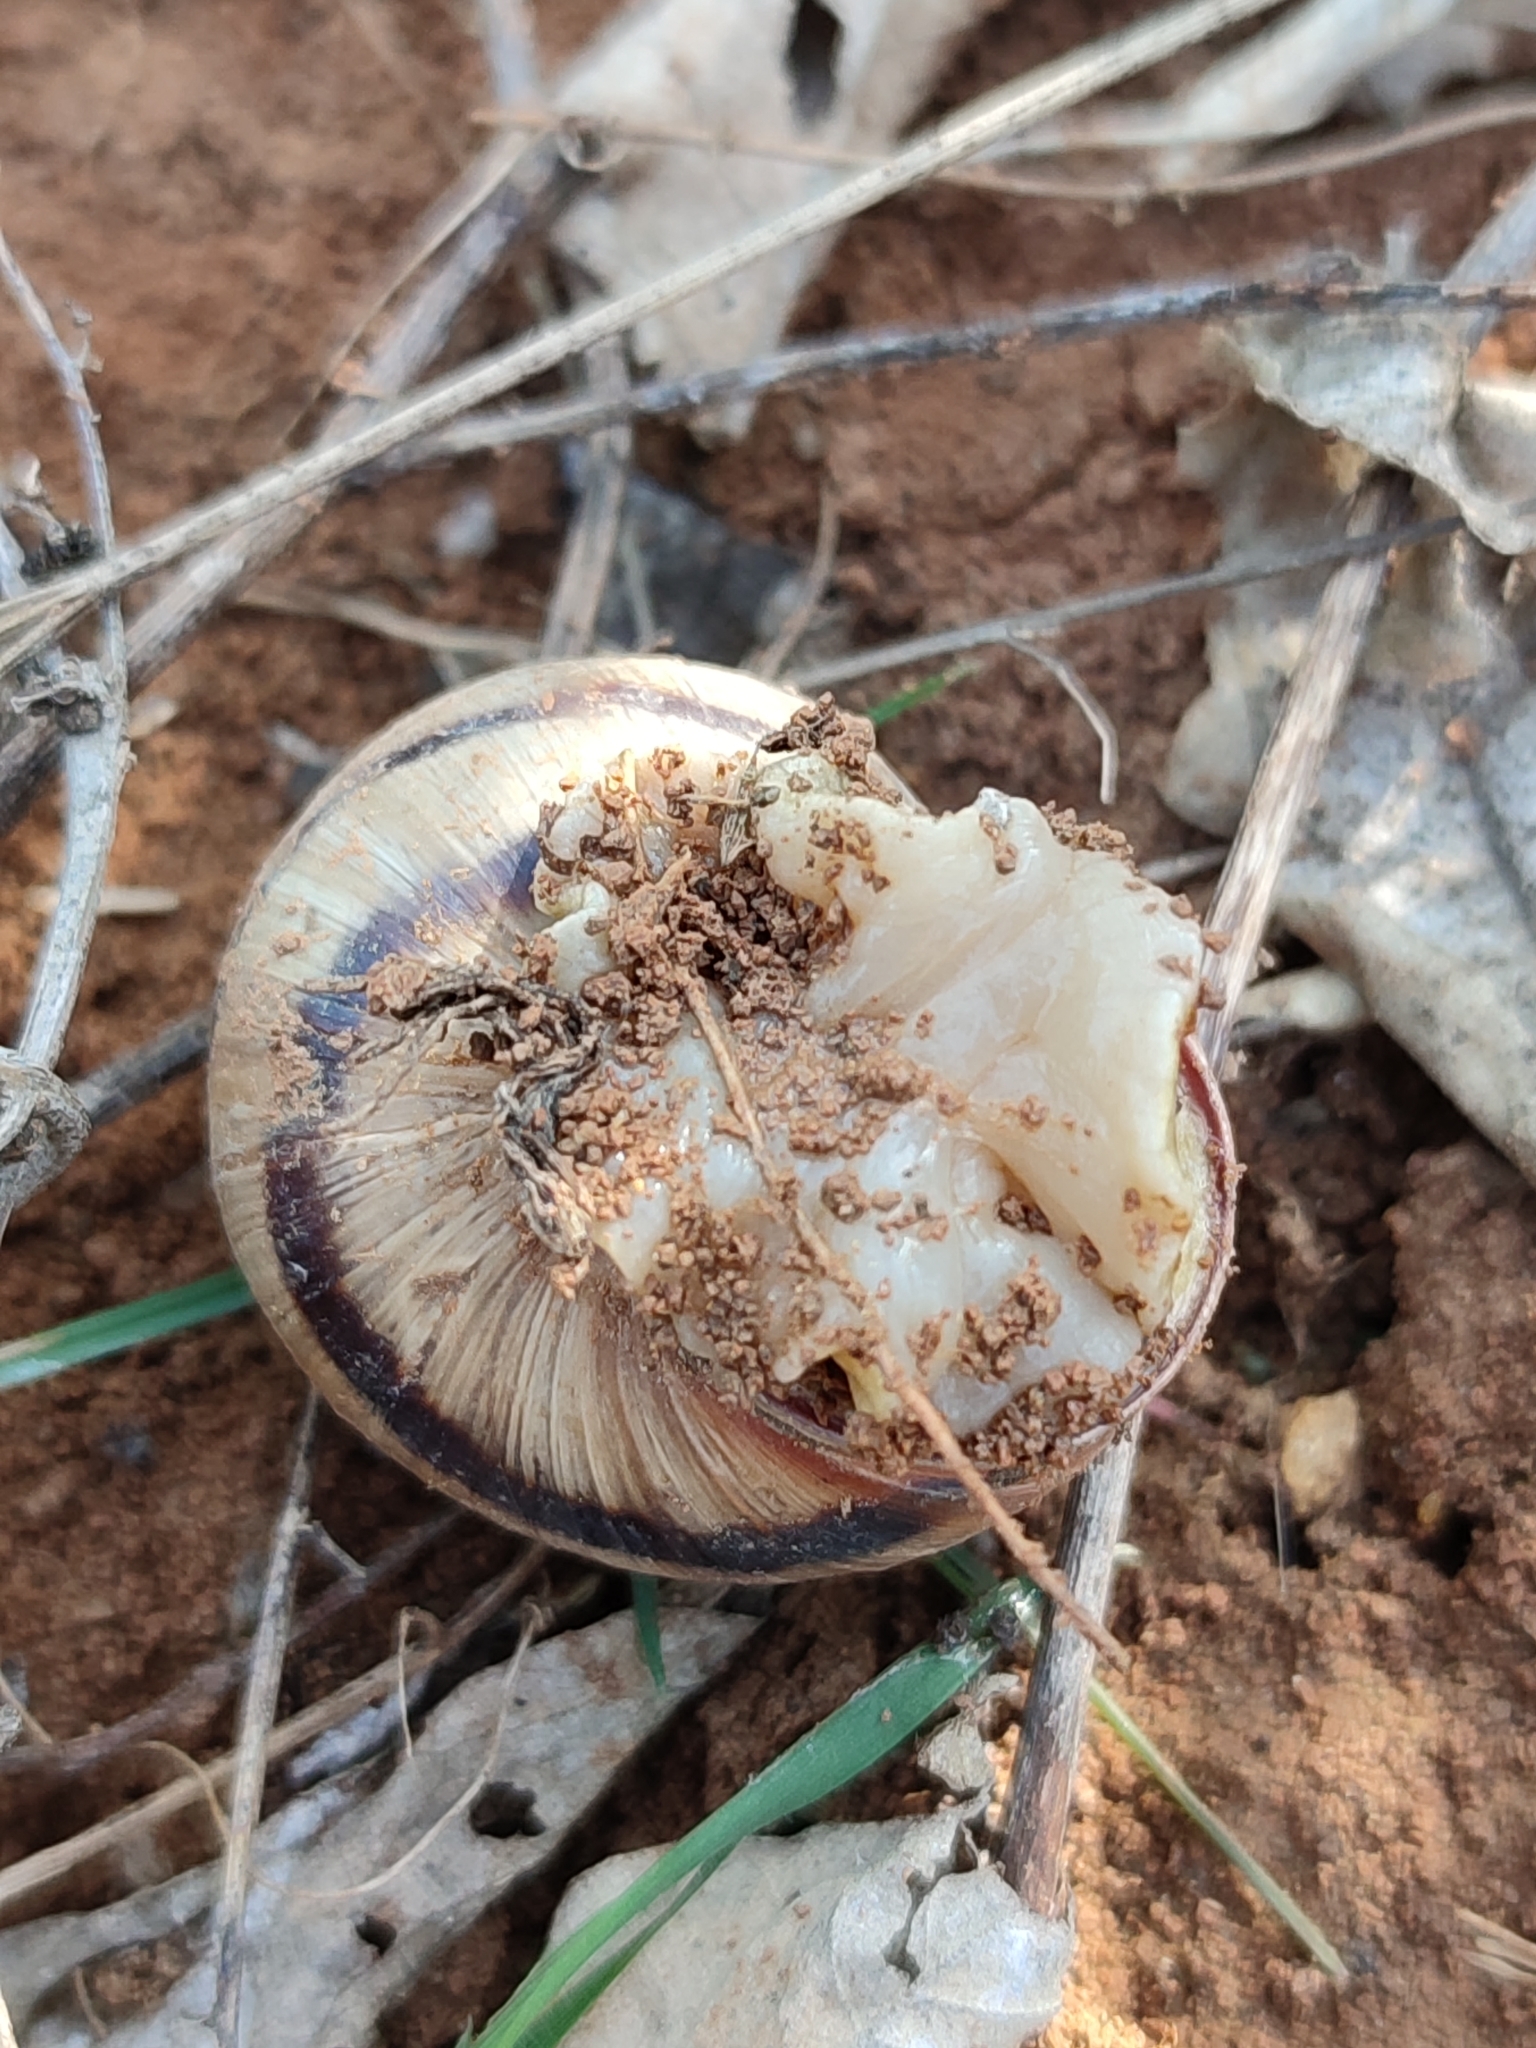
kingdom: Animalia
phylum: Mollusca
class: Gastropoda
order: Stylommatophora
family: Helicidae
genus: Helix
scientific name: Helix albescens
